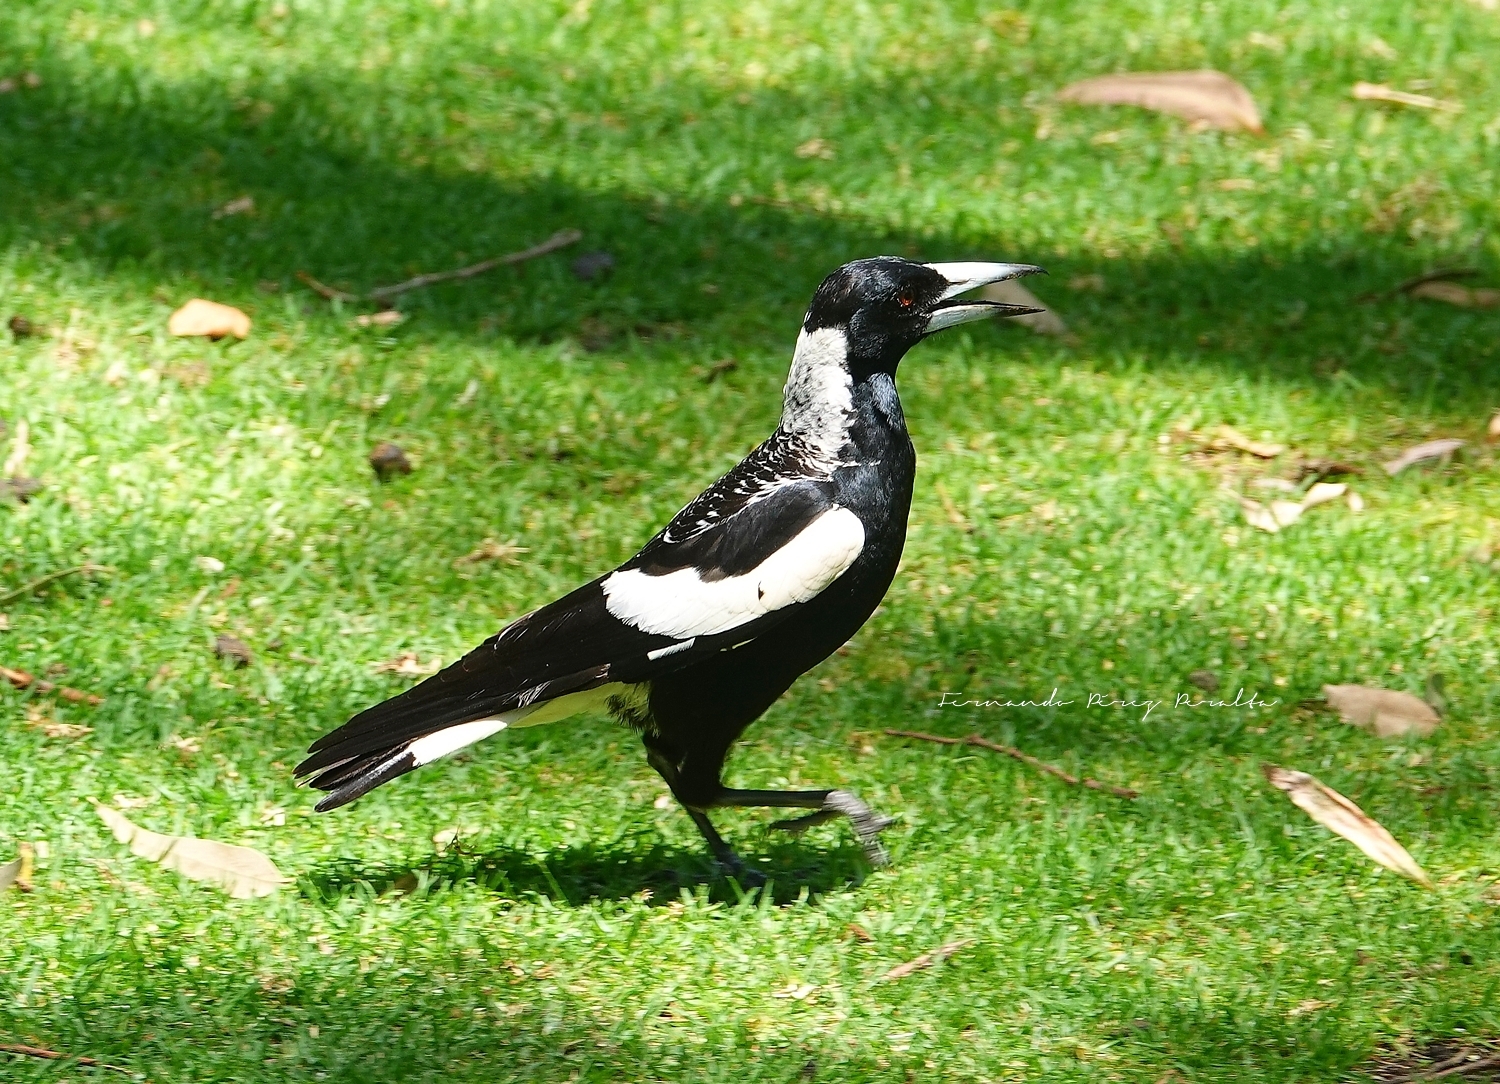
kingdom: Animalia
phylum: Chordata
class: Aves
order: Passeriformes
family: Cracticidae
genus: Gymnorhina
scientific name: Gymnorhina tibicen
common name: Australian magpie
